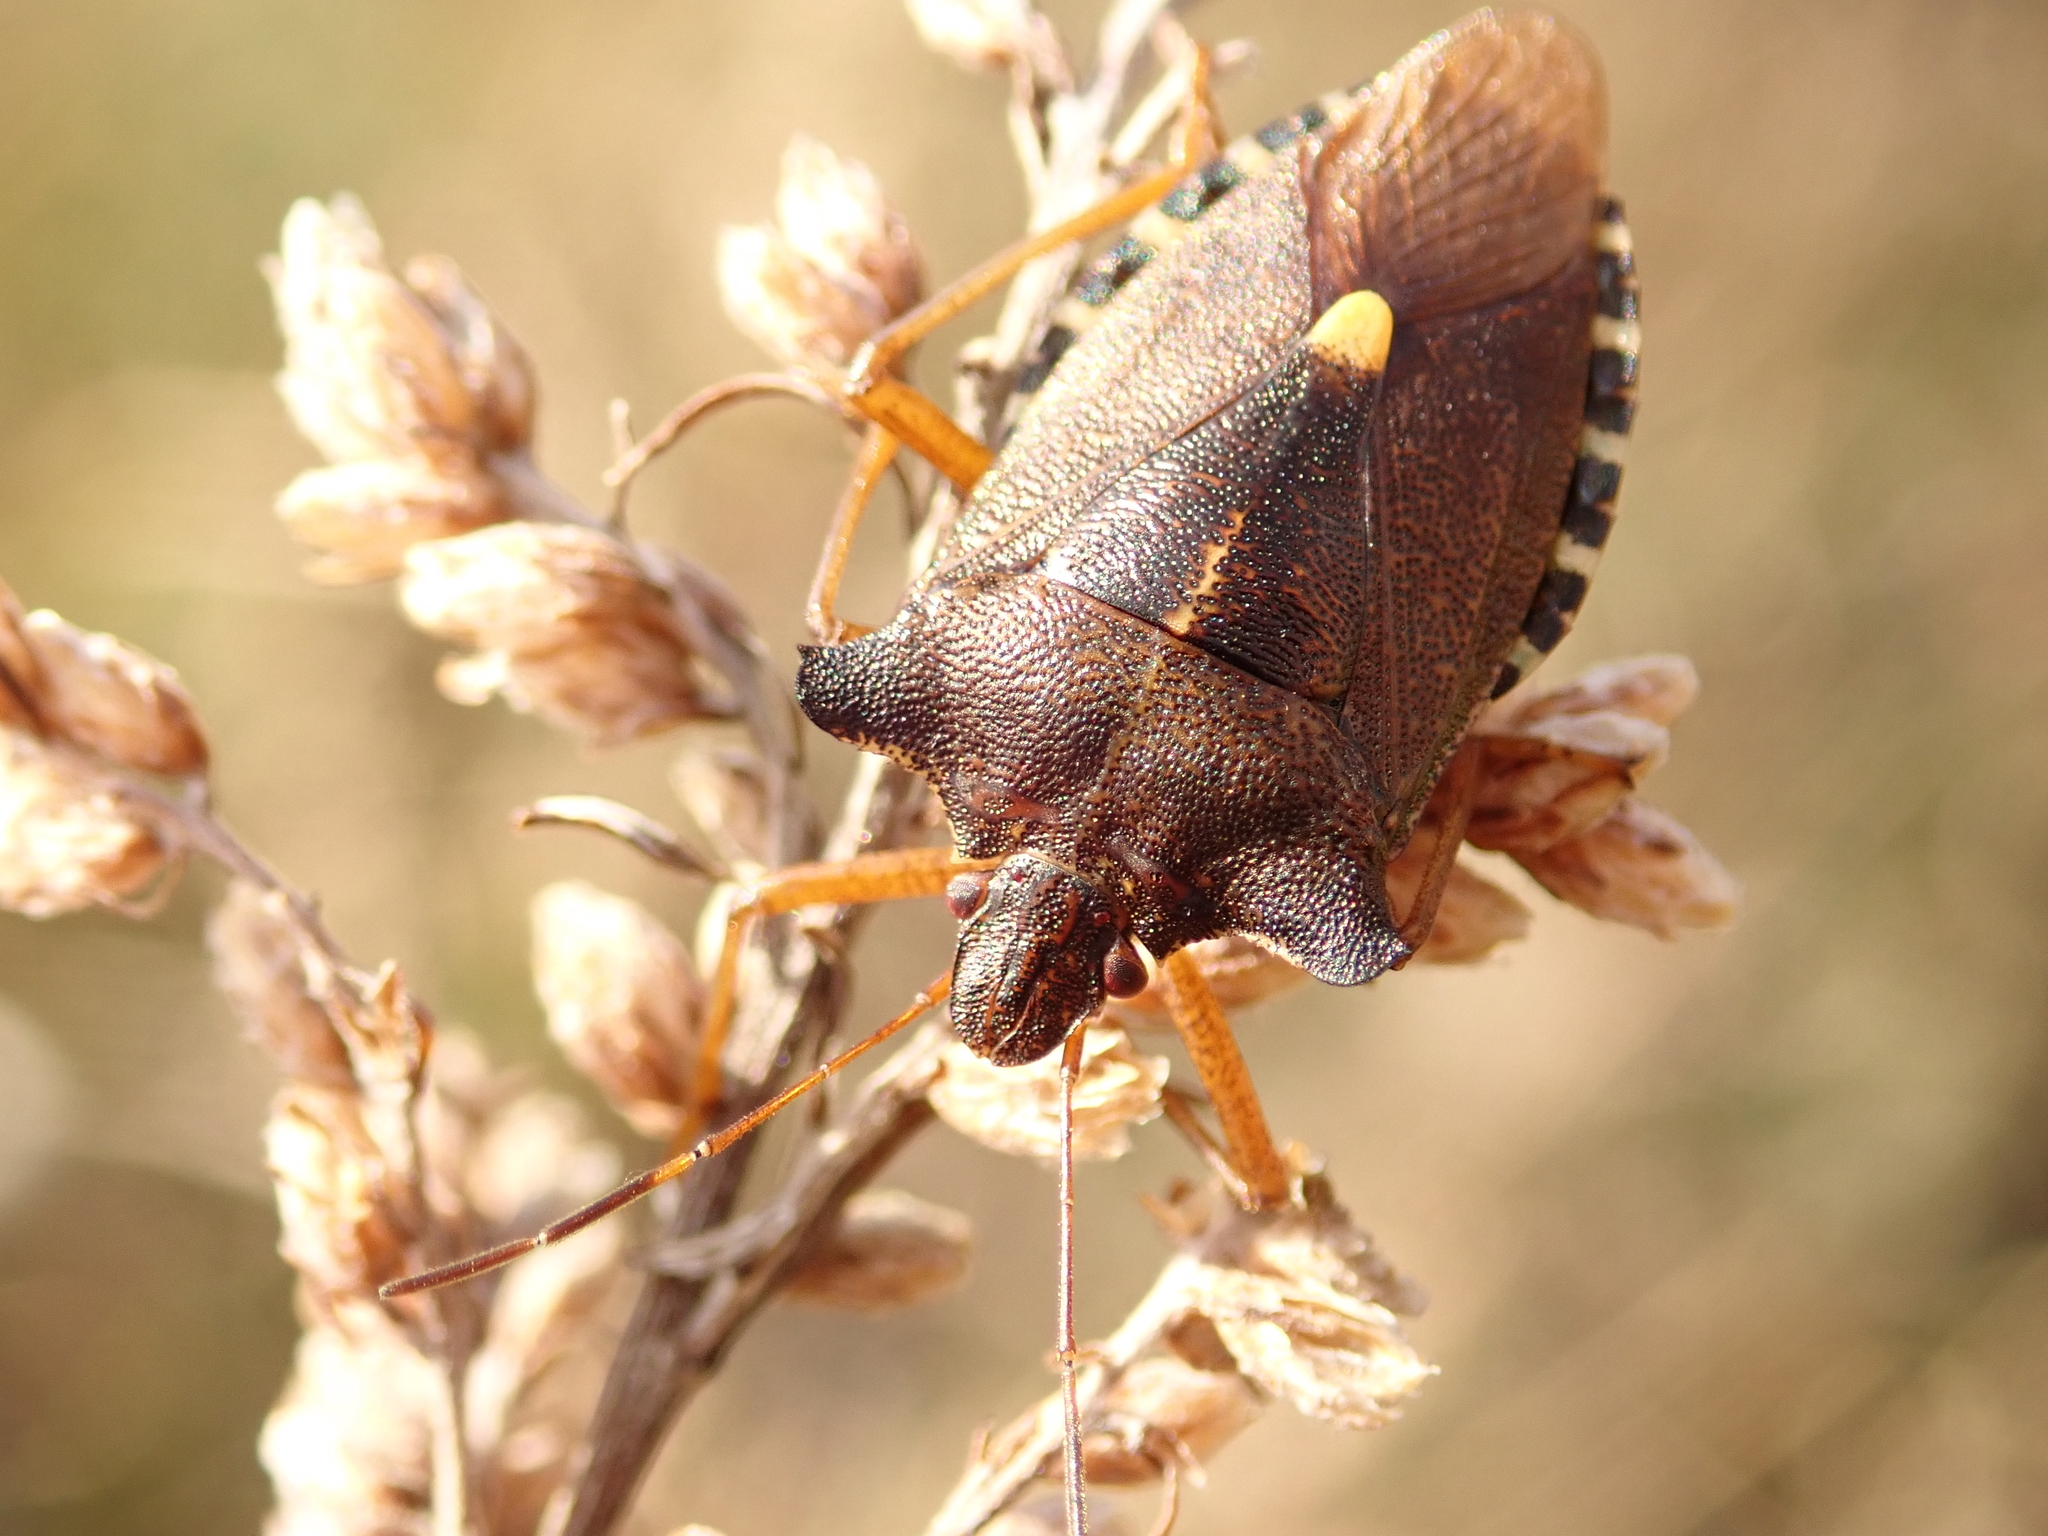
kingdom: Animalia
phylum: Arthropoda
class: Insecta
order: Hemiptera
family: Pentatomidae
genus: Pentatoma
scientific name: Pentatoma rufipes
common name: Forest bug
